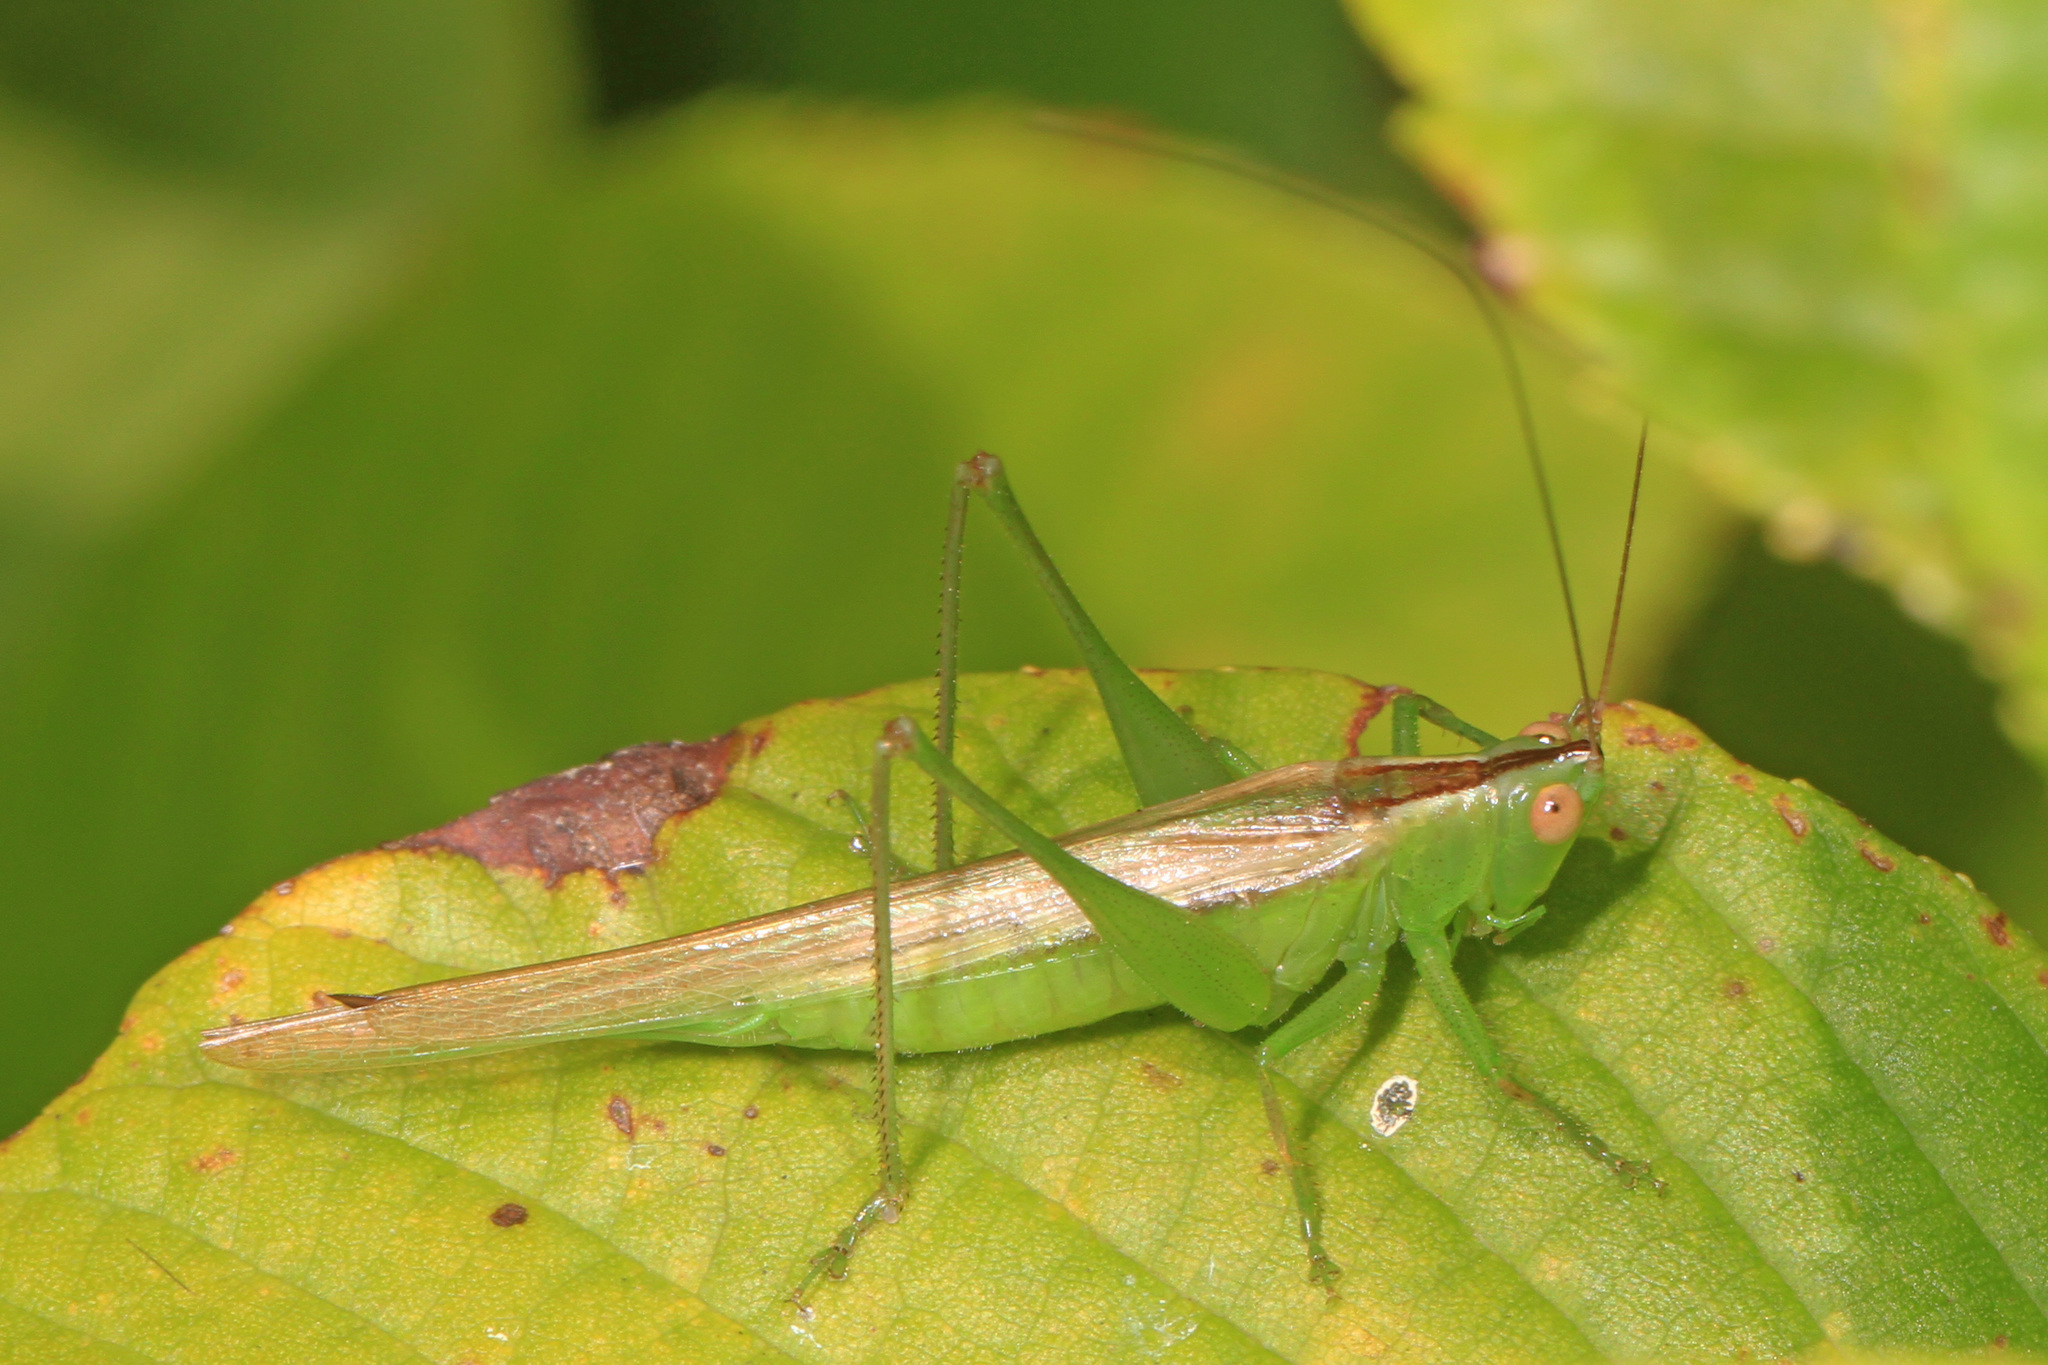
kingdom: Animalia
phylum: Arthropoda
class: Insecta
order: Orthoptera
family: Tettigoniidae
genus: Conocephalus
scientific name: Conocephalus fasciatus
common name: Slender meadow katydid
